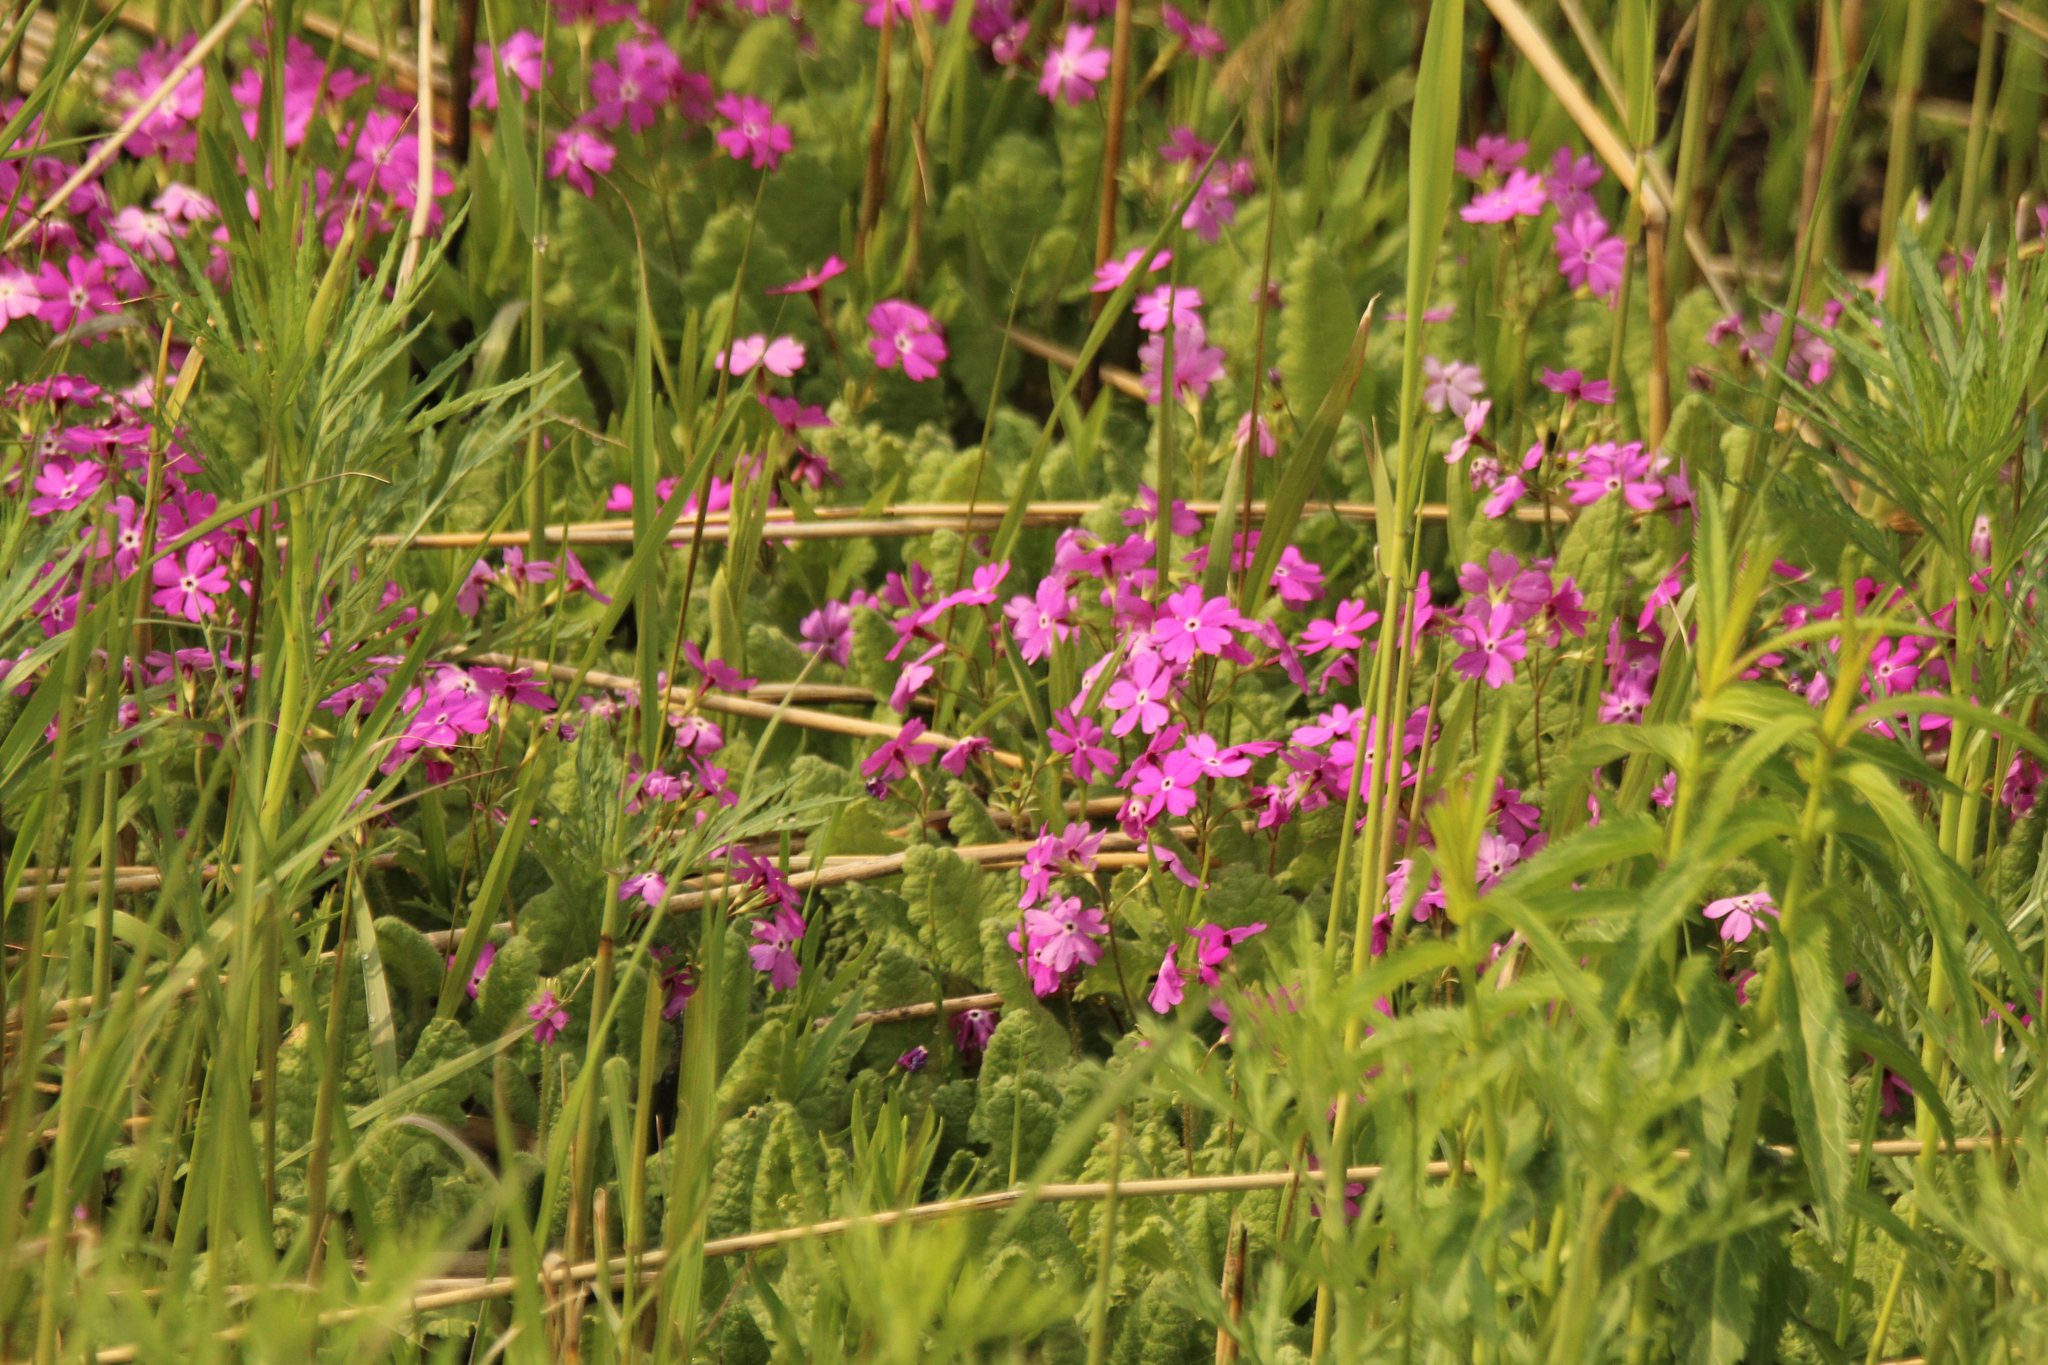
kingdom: Plantae
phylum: Tracheophyta
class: Magnoliopsida
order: Ericales
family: Primulaceae
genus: Primula
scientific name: Primula sieboldii
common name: Japanese primrose
